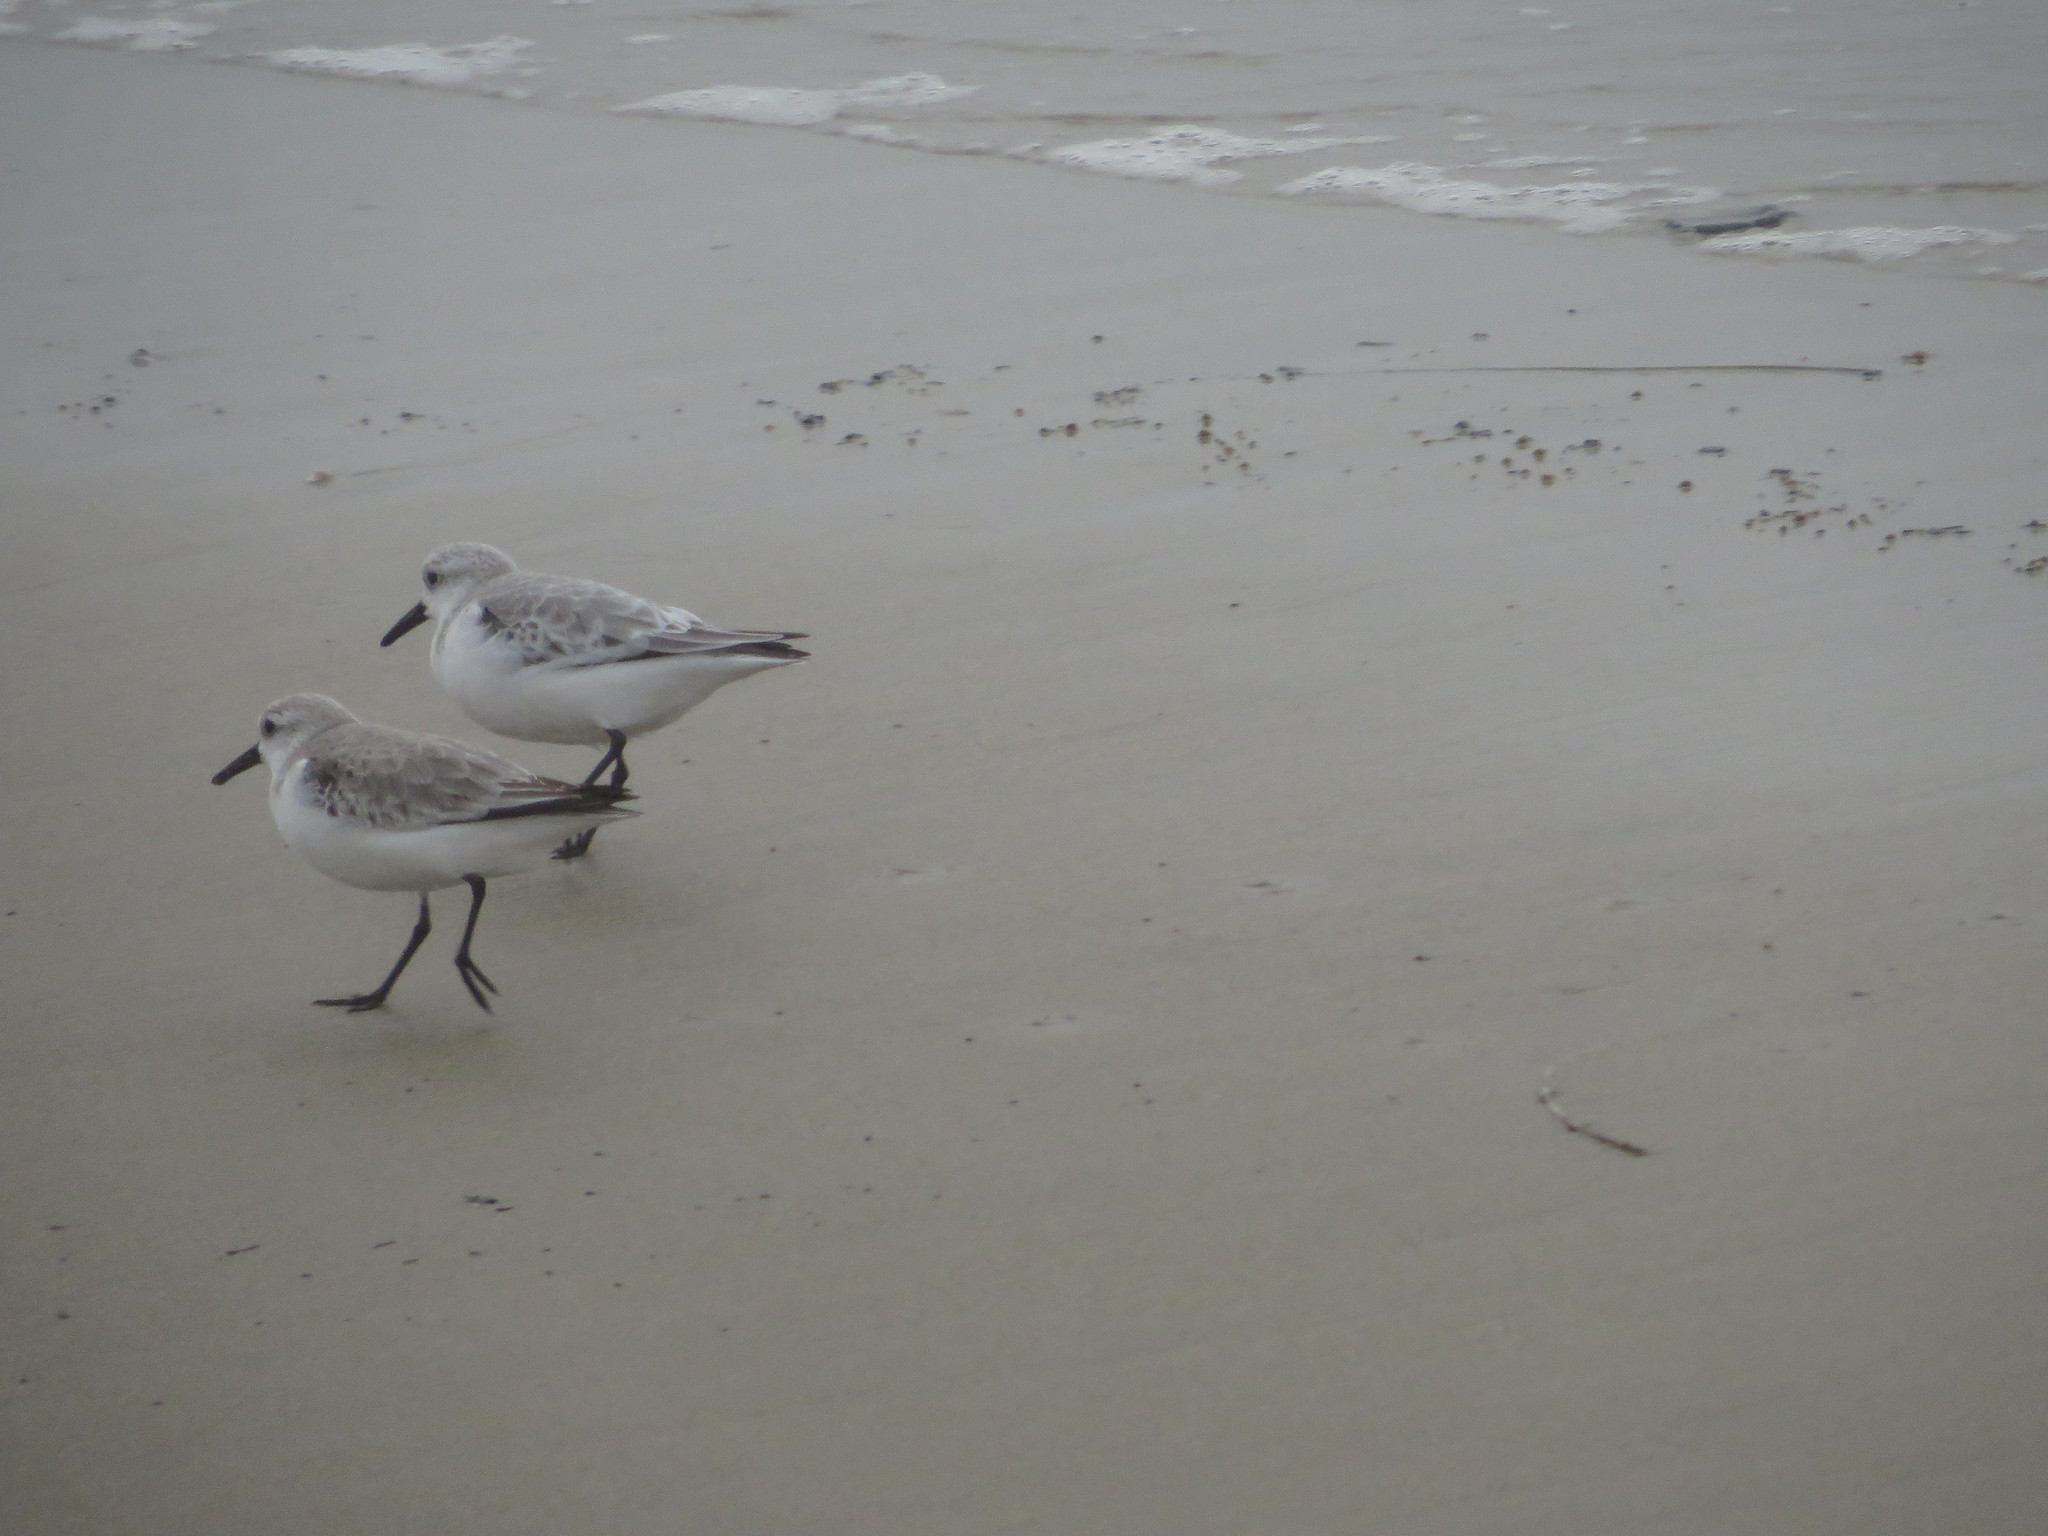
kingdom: Animalia
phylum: Chordata
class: Aves
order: Charadriiformes
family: Scolopacidae
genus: Calidris
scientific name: Calidris alba
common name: Sanderling
